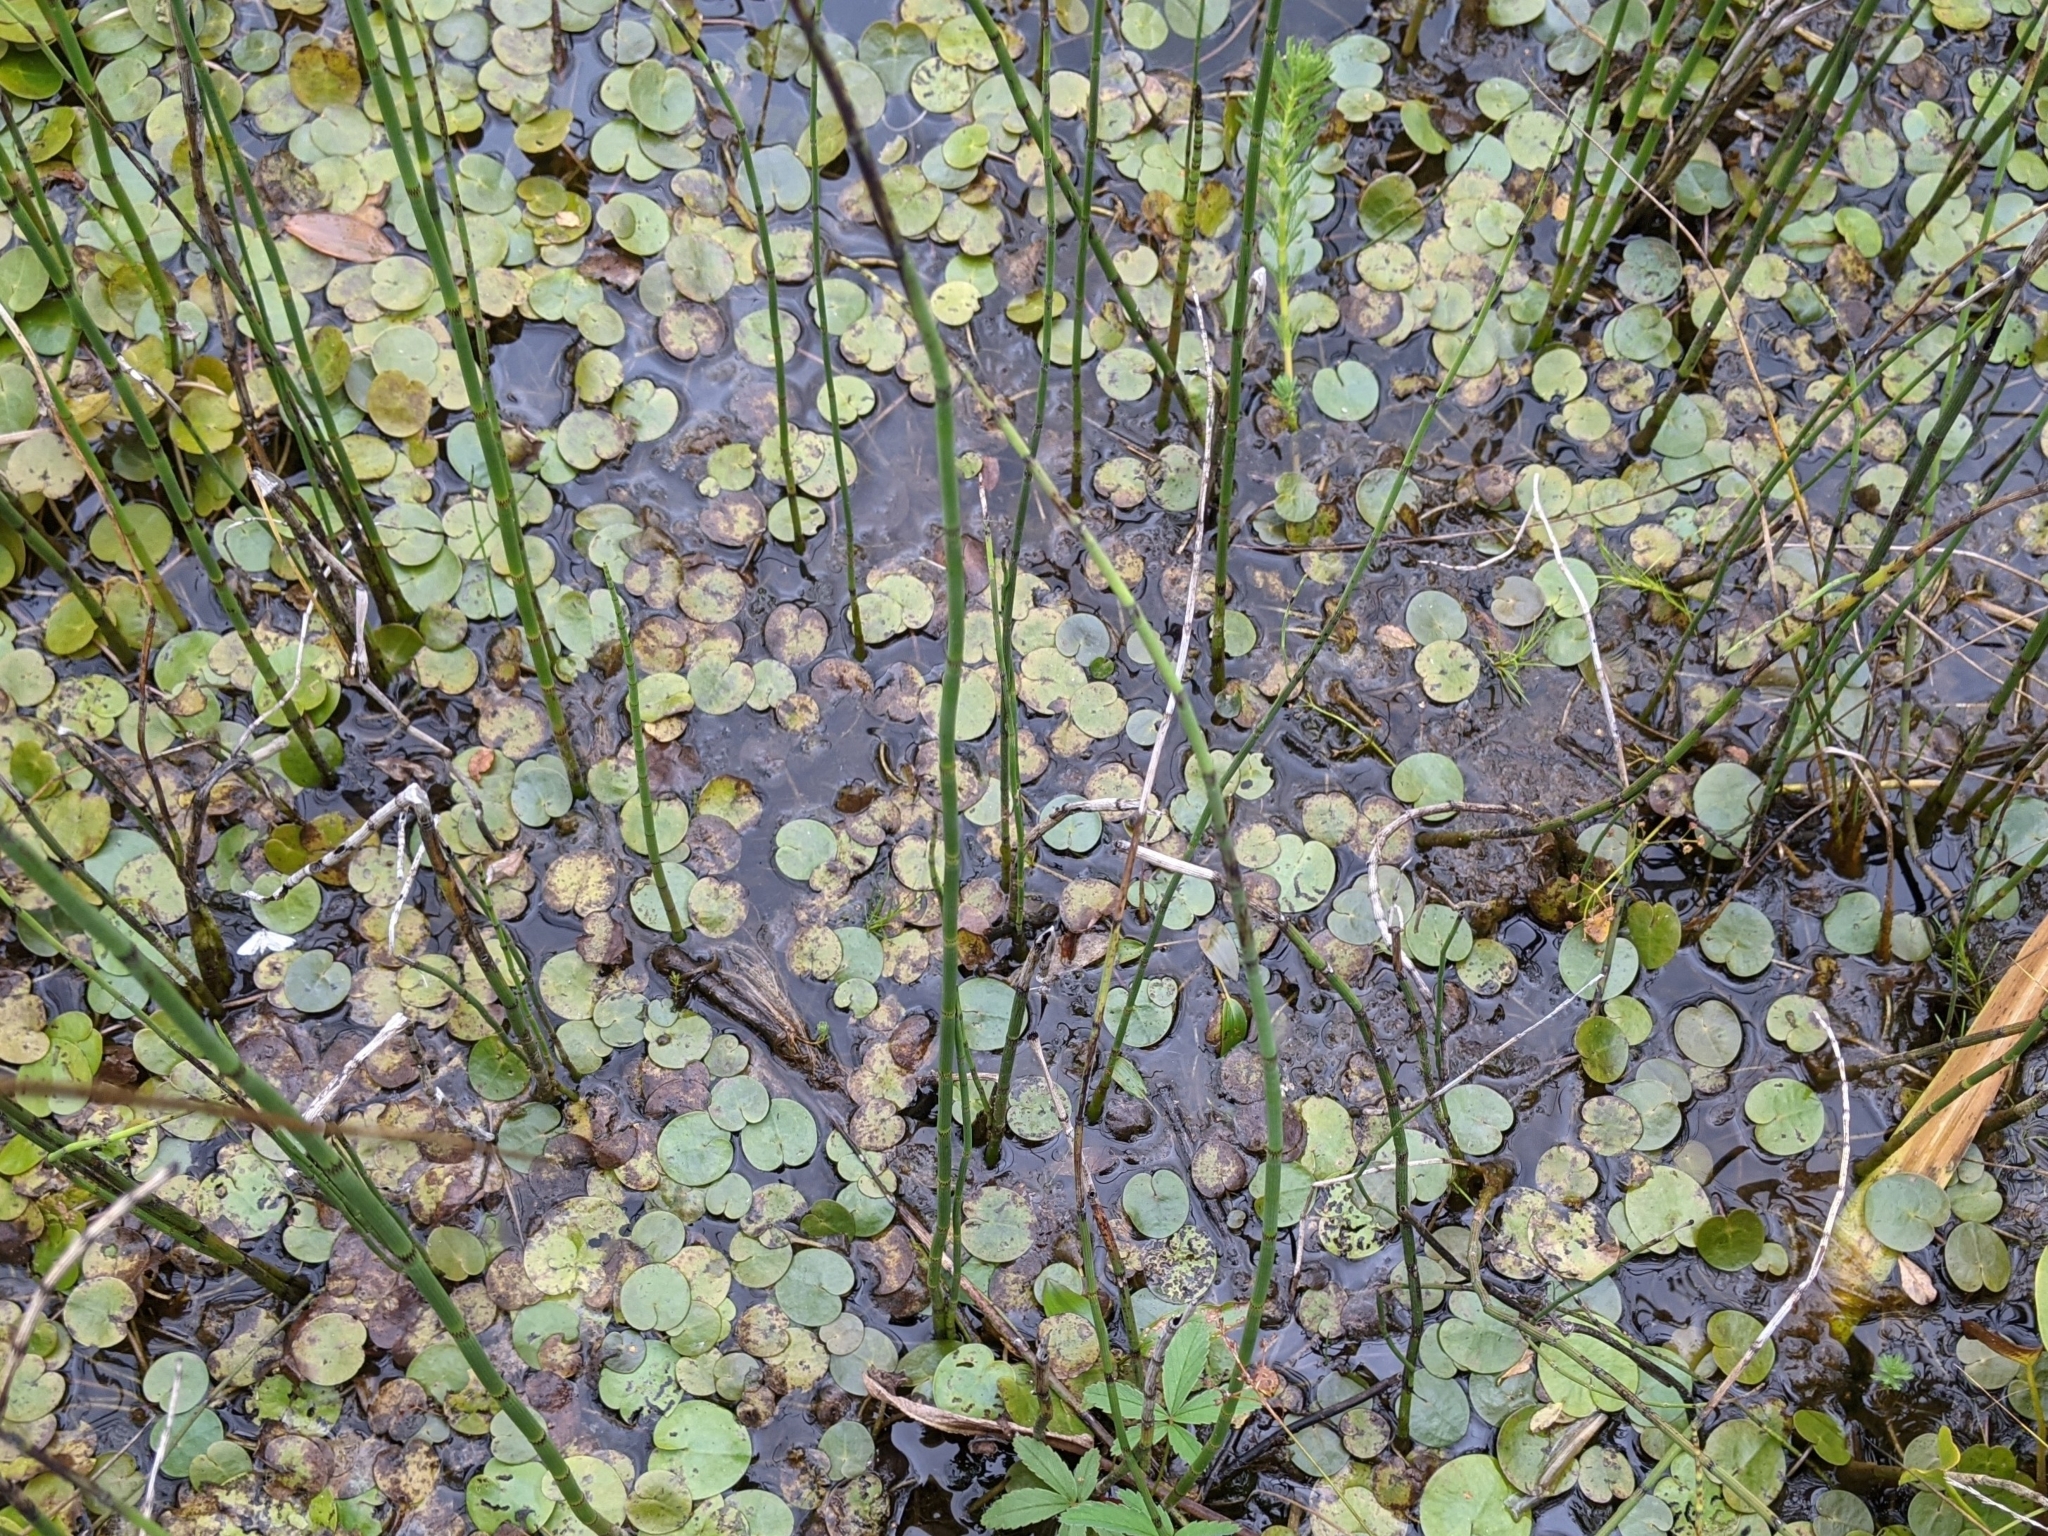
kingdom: Plantae
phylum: Tracheophyta
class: Polypodiopsida
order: Equisetales
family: Equisetaceae
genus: Equisetum
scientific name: Equisetum fluviatile
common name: Water horsetail
